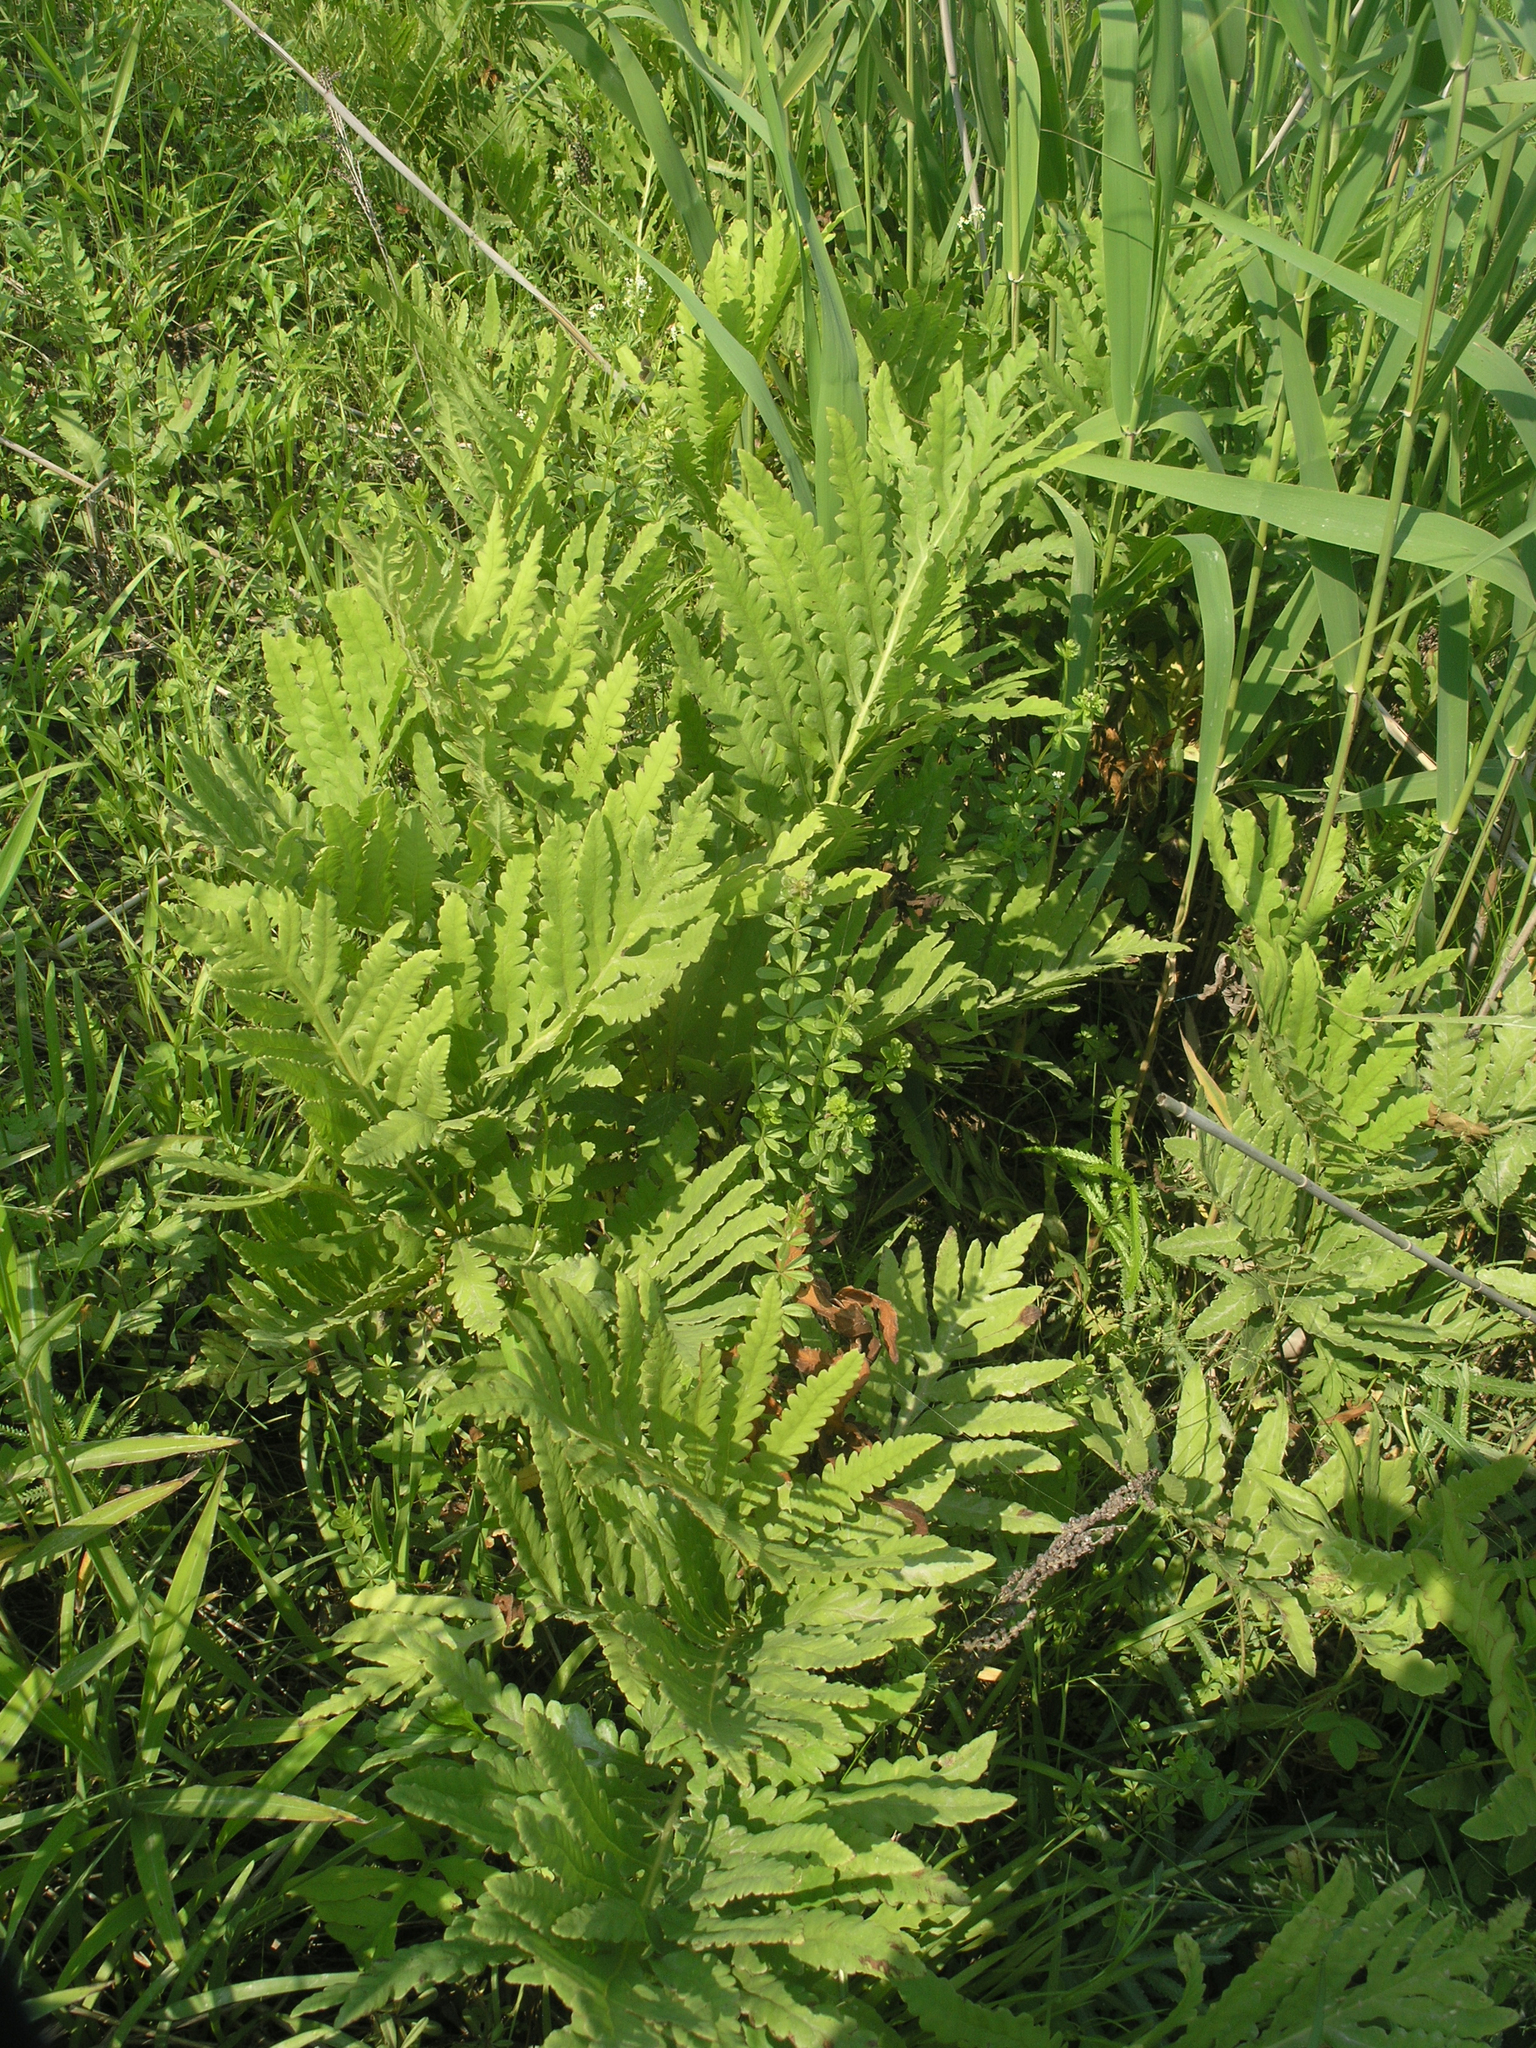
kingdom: Plantae
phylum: Tracheophyta
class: Polypodiopsida
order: Polypodiales
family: Onocleaceae
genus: Onoclea
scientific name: Onoclea sensibilis
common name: Sensitive fern
